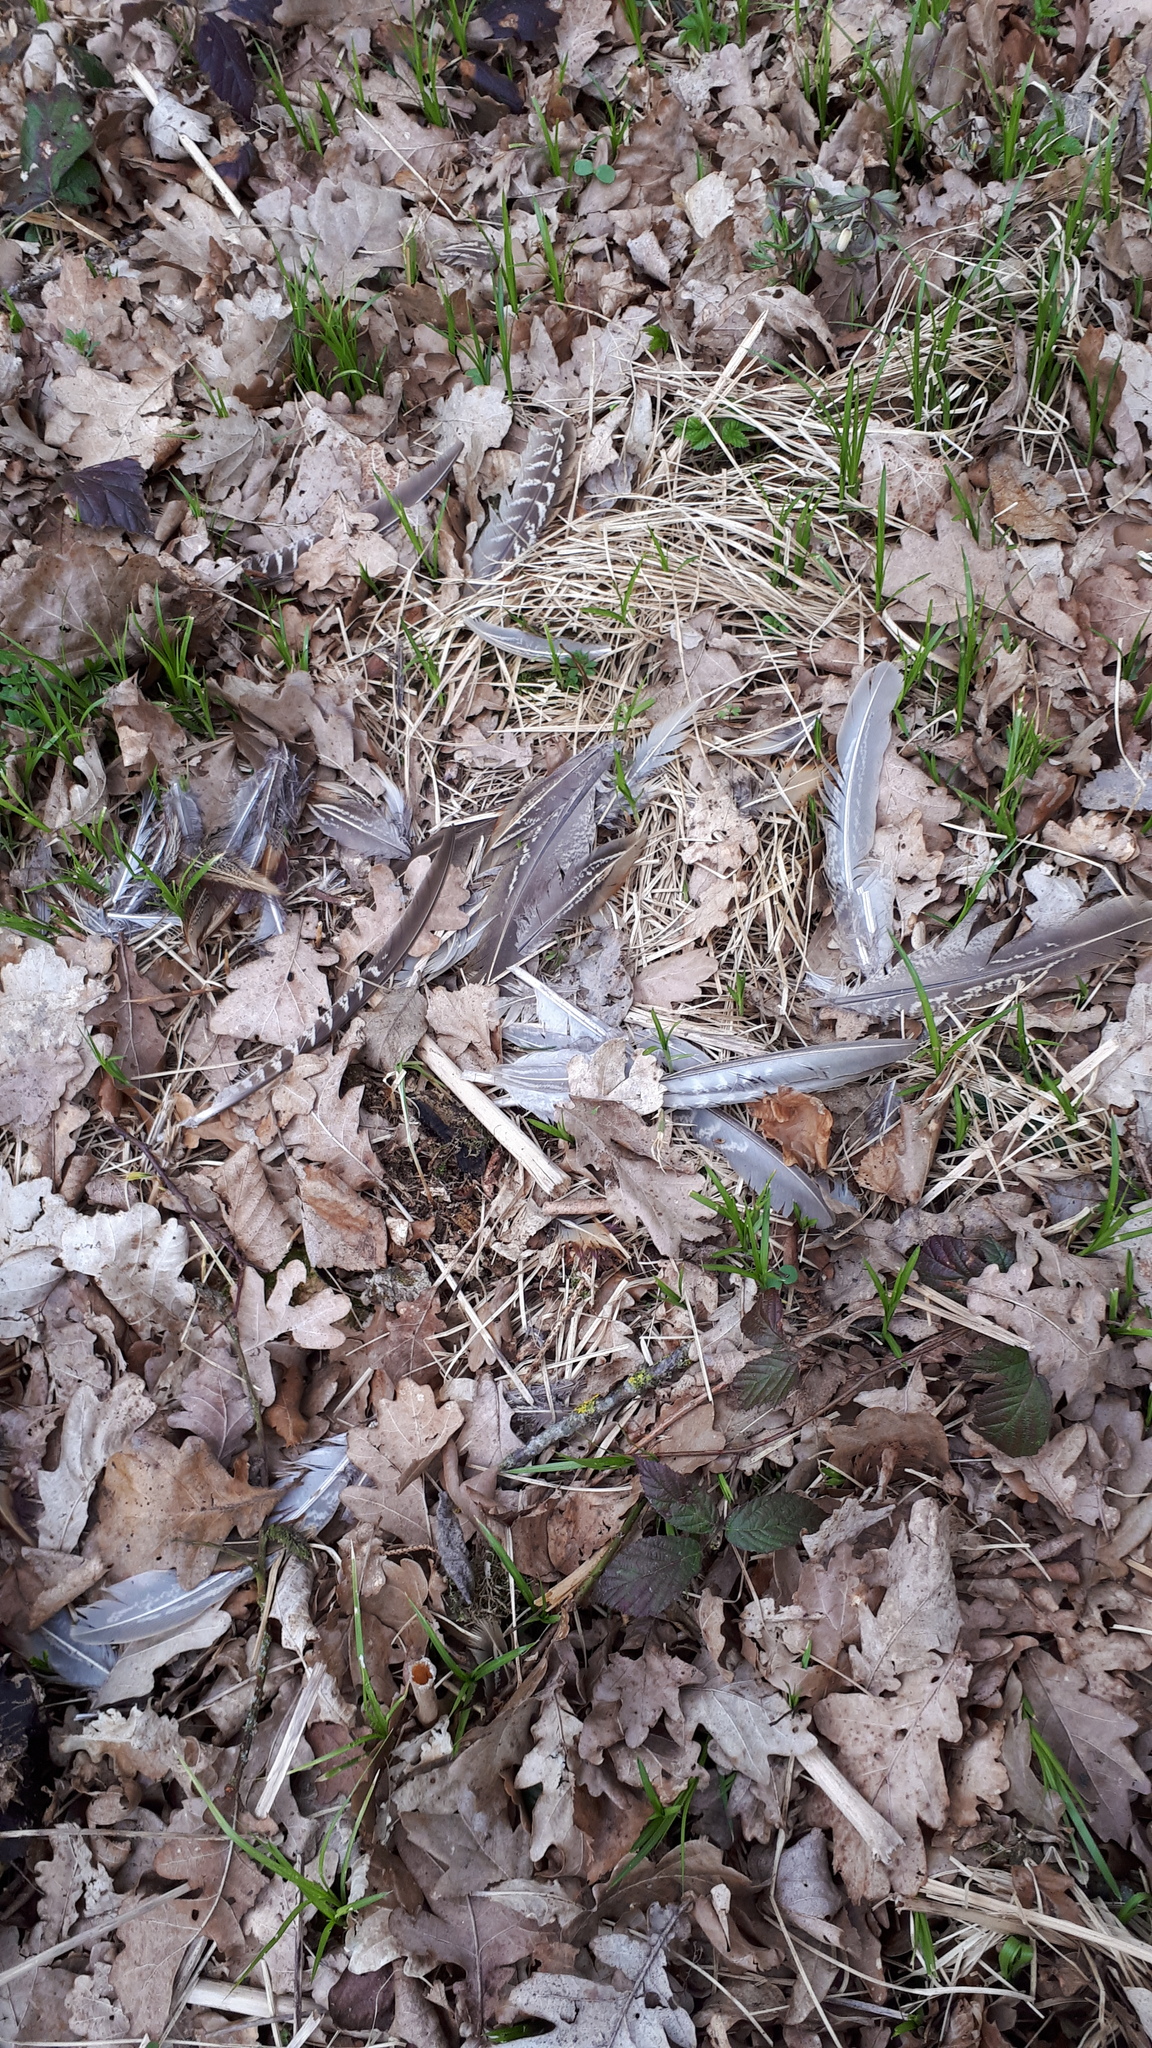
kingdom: Animalia
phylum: Chordata
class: Aves
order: Galliformes
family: Phasianidae
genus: Phasianus
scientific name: Phasianus colchicus
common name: Common pheasant
